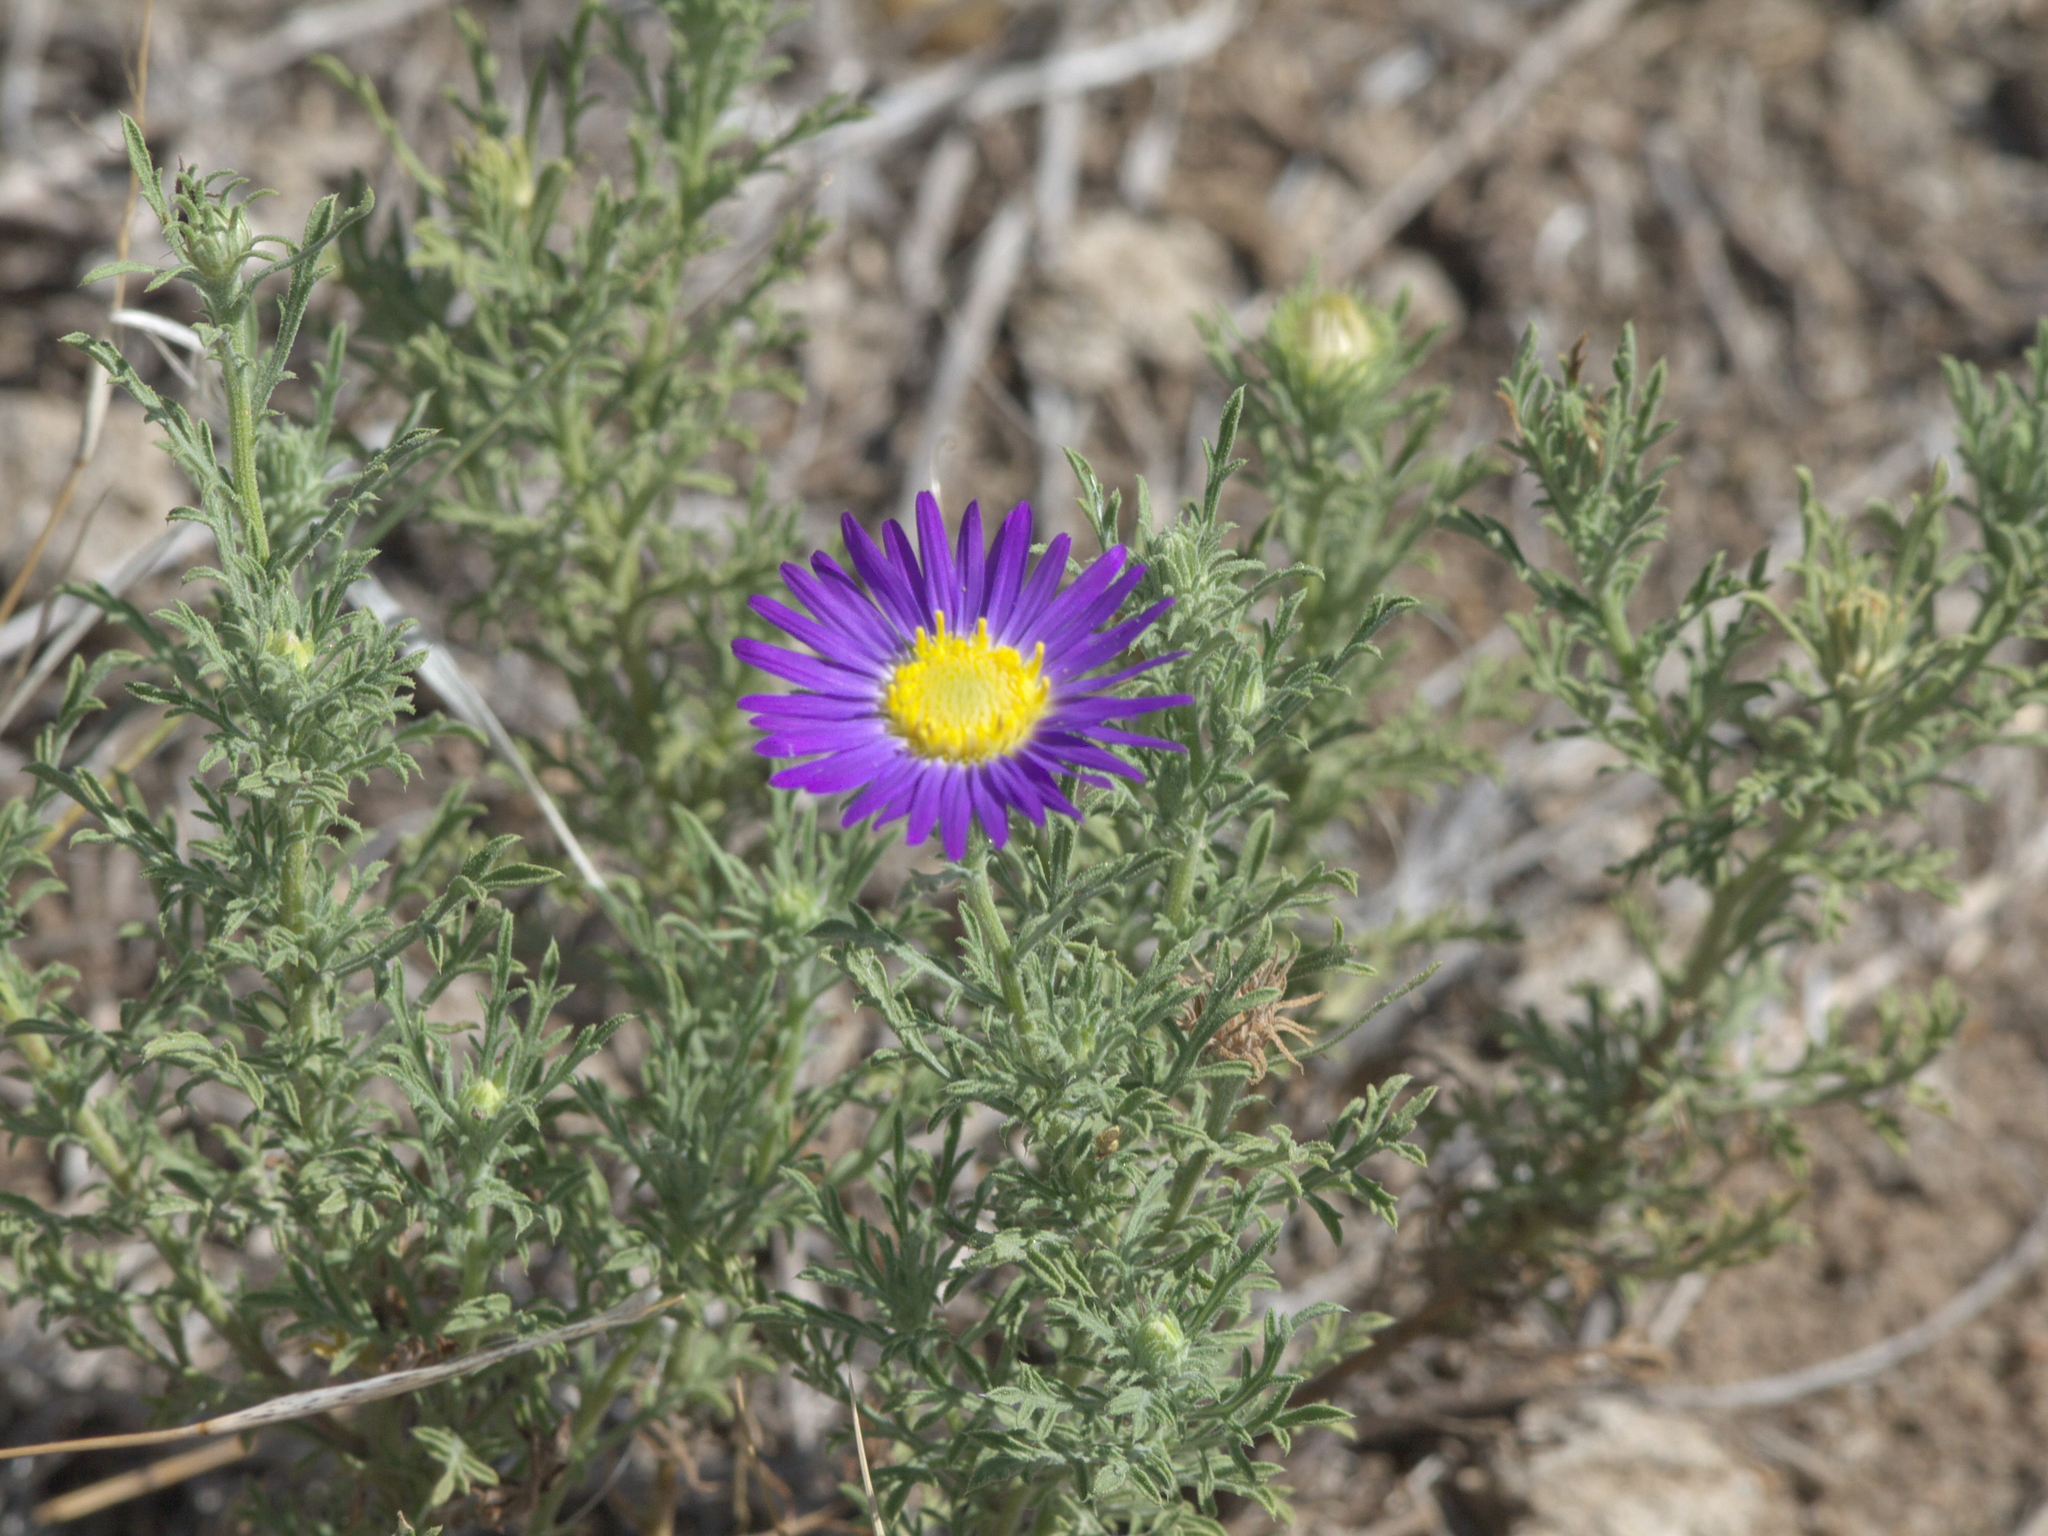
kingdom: Plantae
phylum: Tracheophyta
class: Magnoliopsida
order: Asterales
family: Asteraceae
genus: Machaeranthera
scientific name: Machaeranthera tanacetifolia
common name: Tansy-aster
